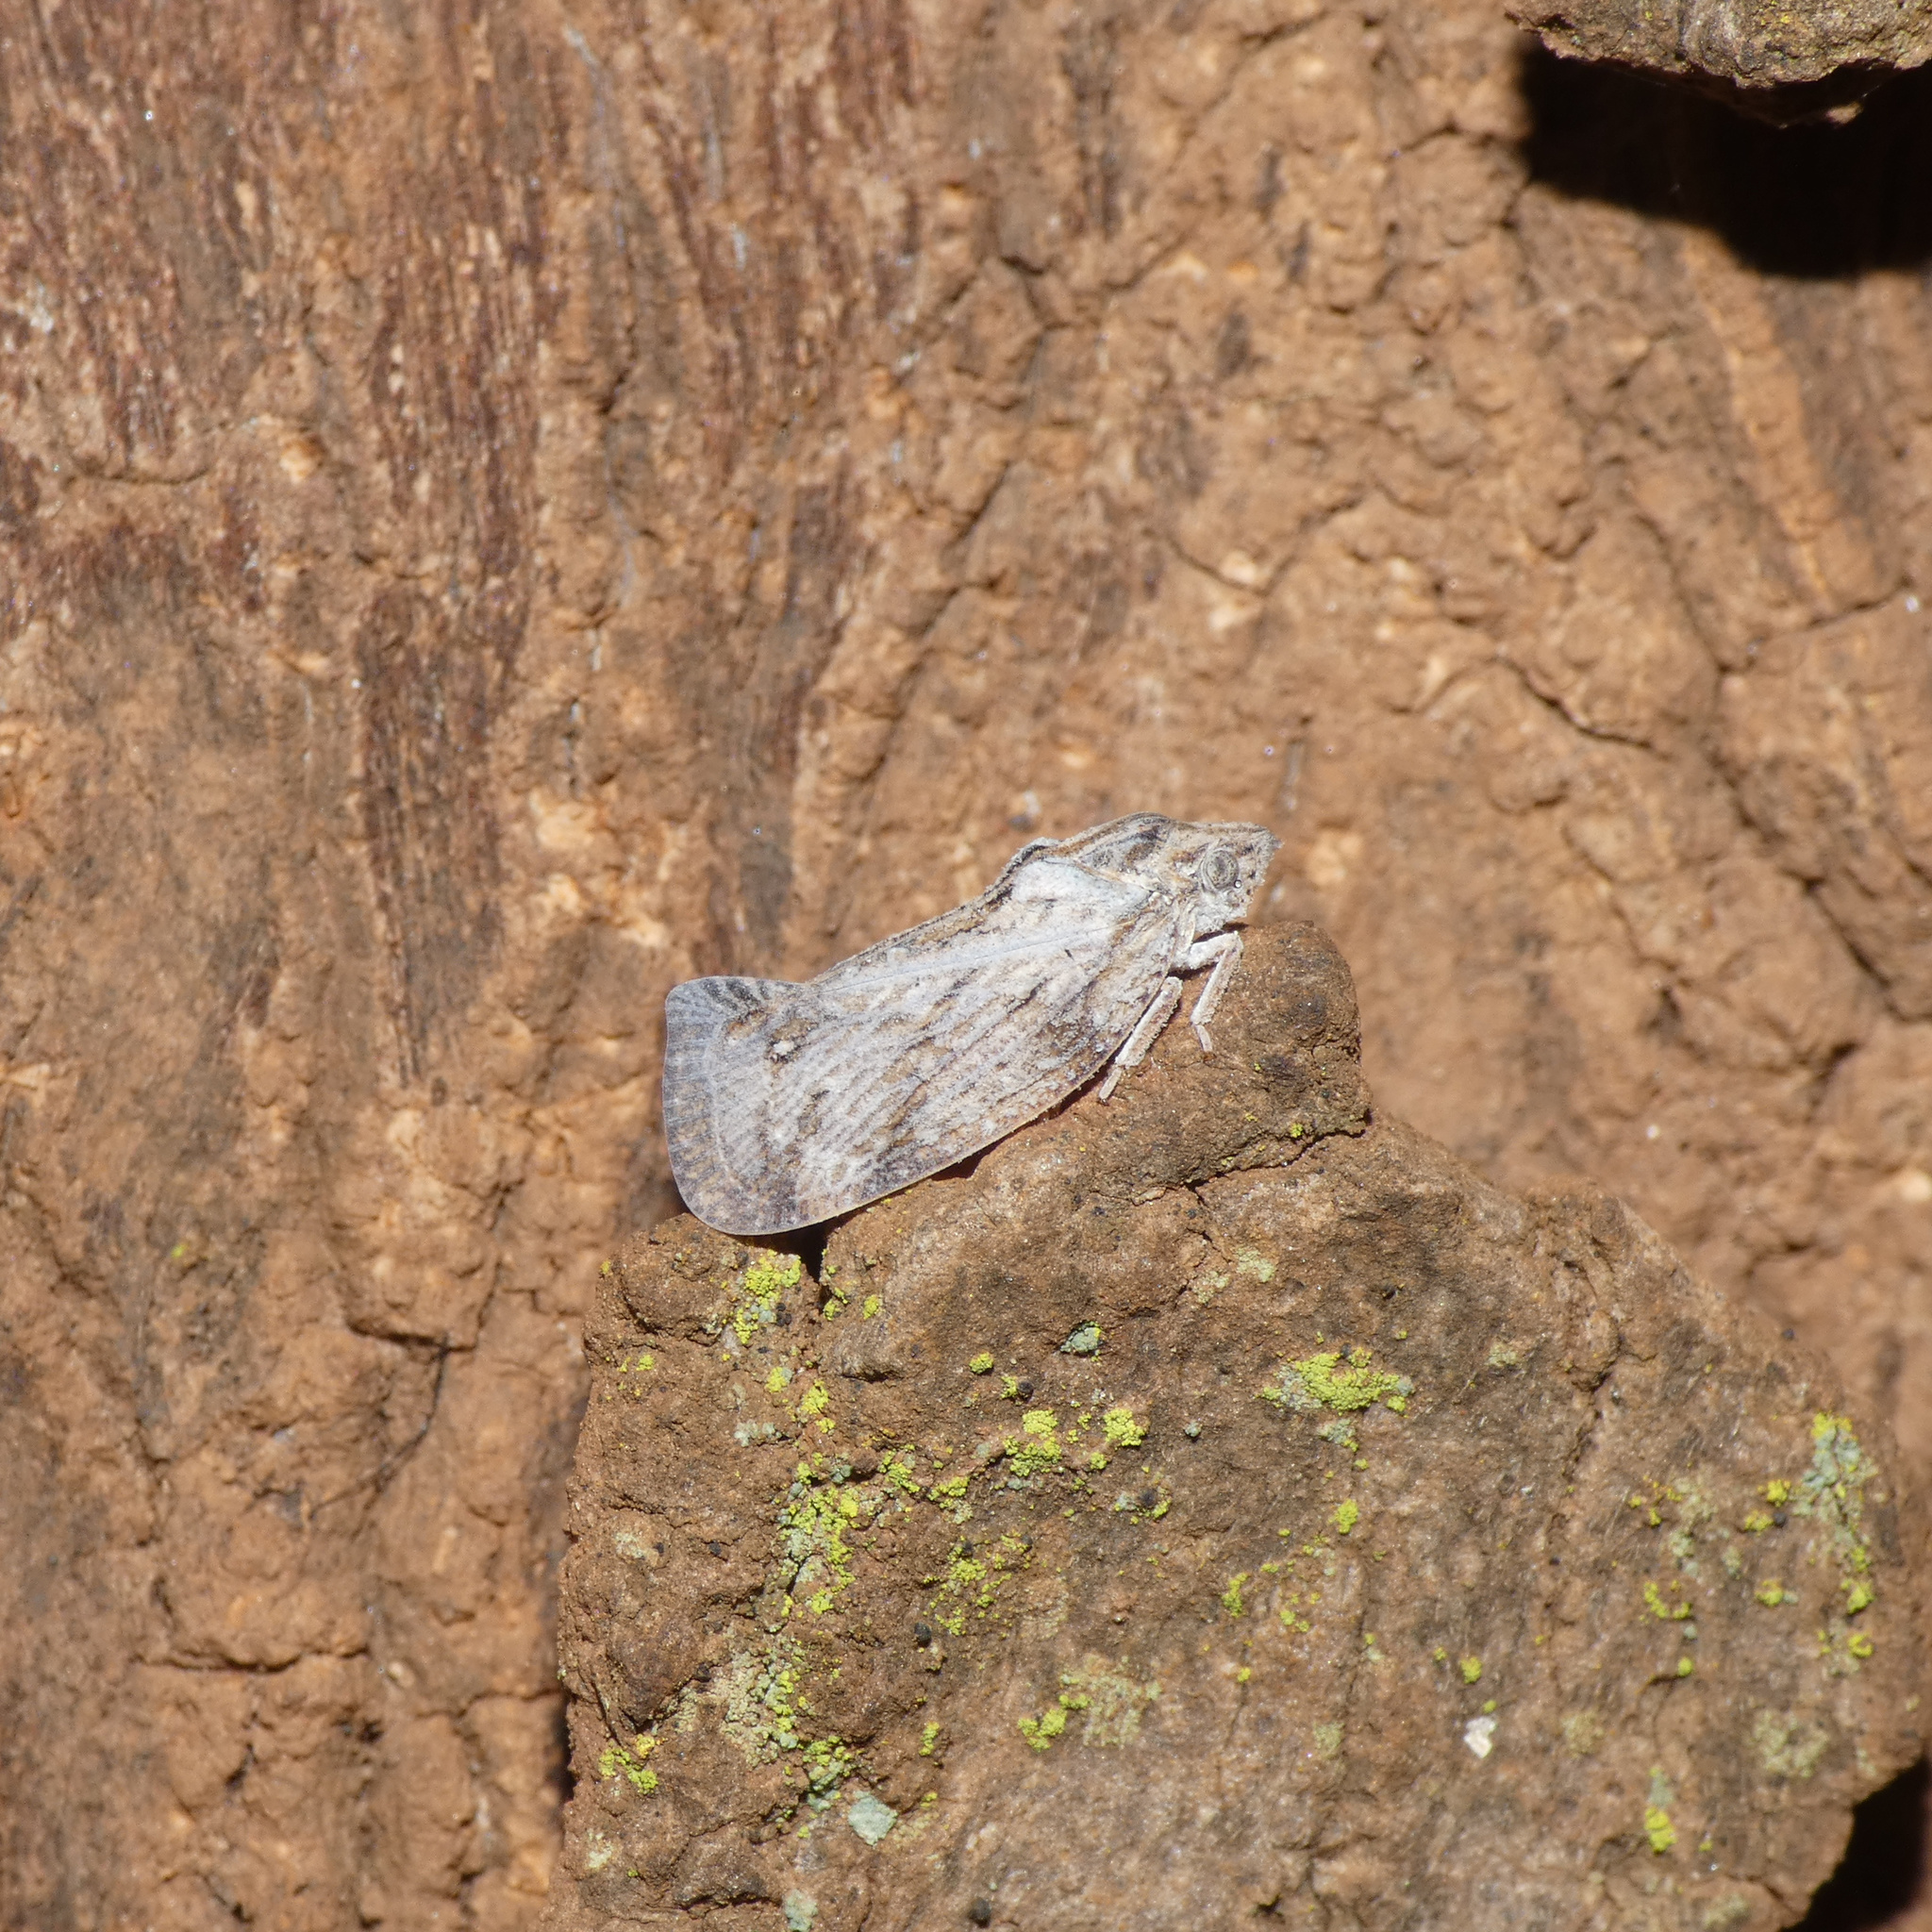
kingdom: Animalia
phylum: Arthropoda
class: Insecta
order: Hemiptera
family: Flatidae
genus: Juba
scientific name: Juba plagosa
